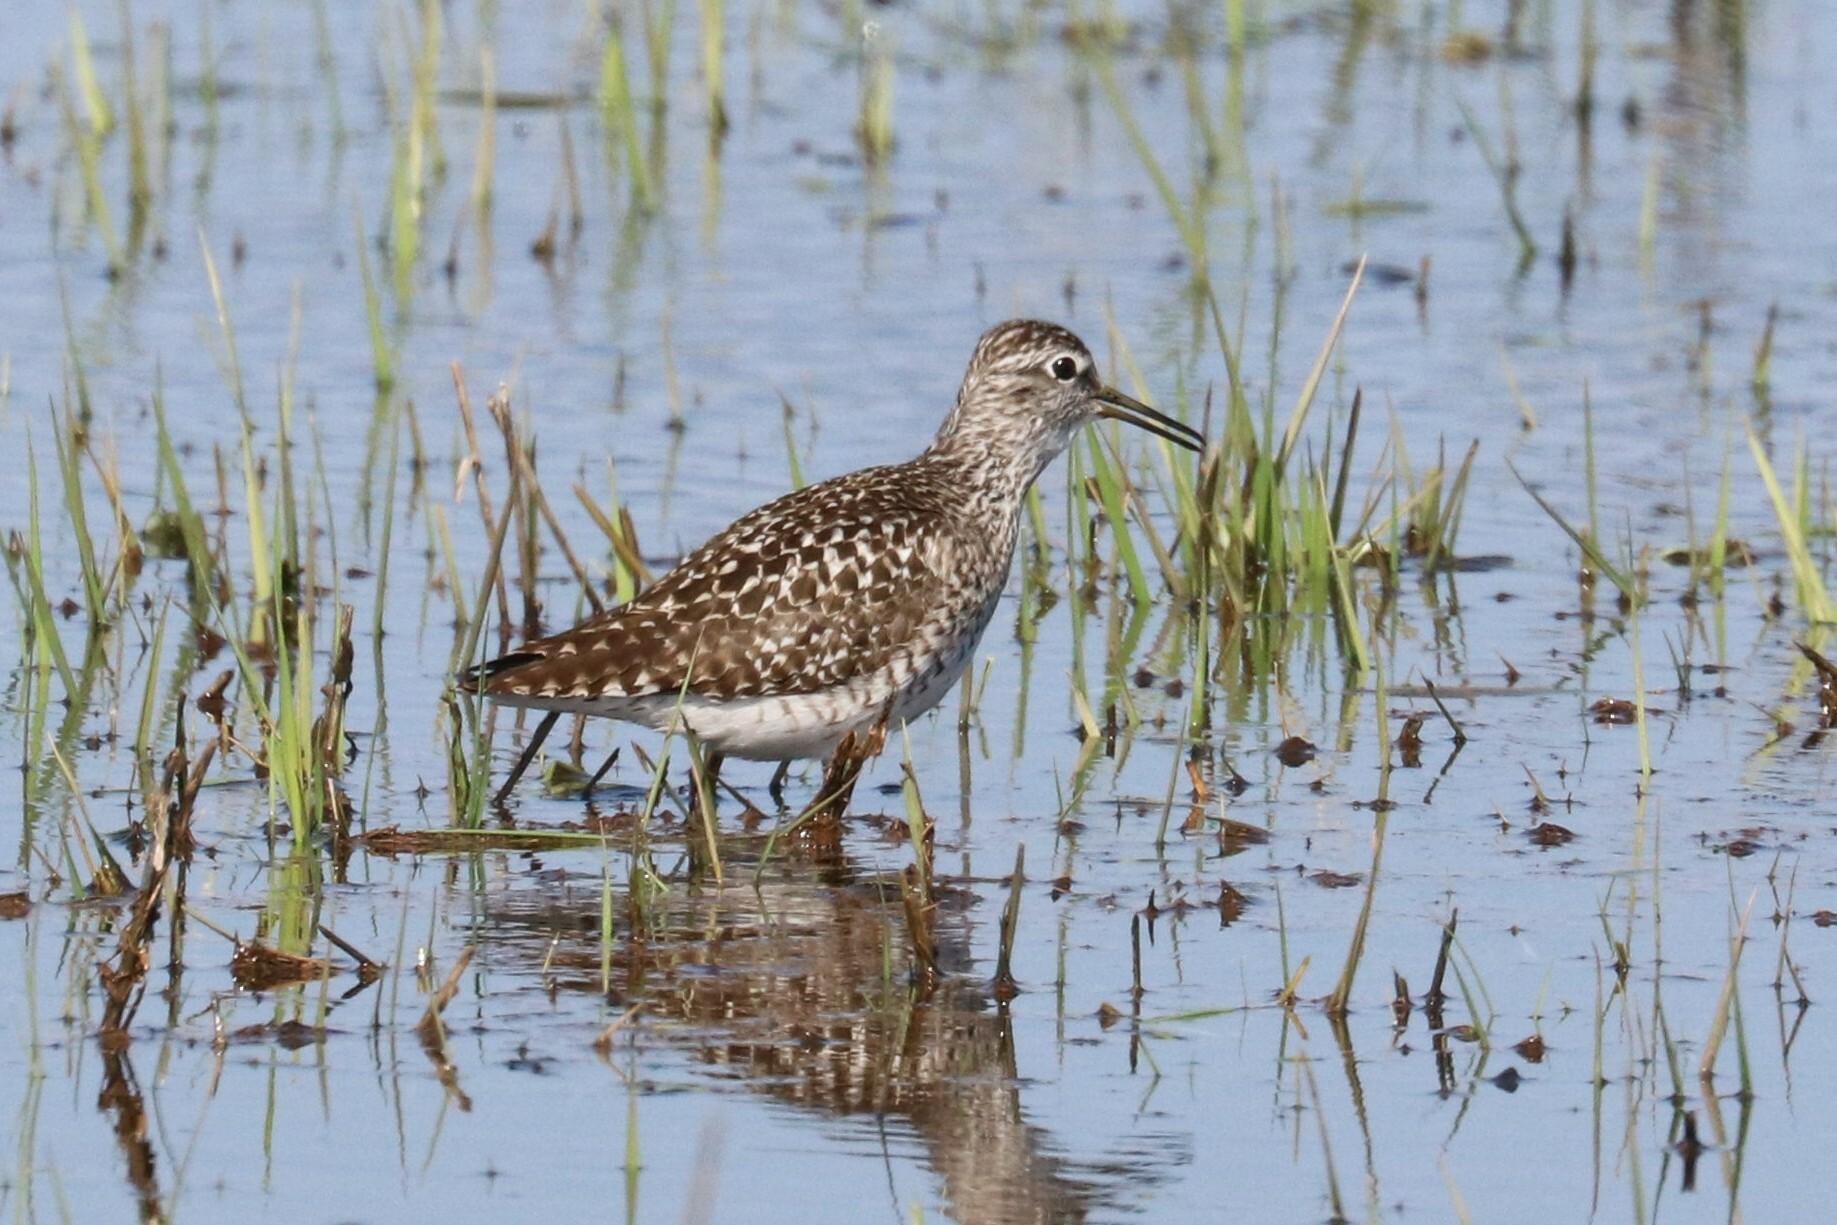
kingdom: Animalia
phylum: Chordata
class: Aves
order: Charadriiformes
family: Scolopacidae
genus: Tringa
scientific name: Tringa glareola
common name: Wood sandpiper
